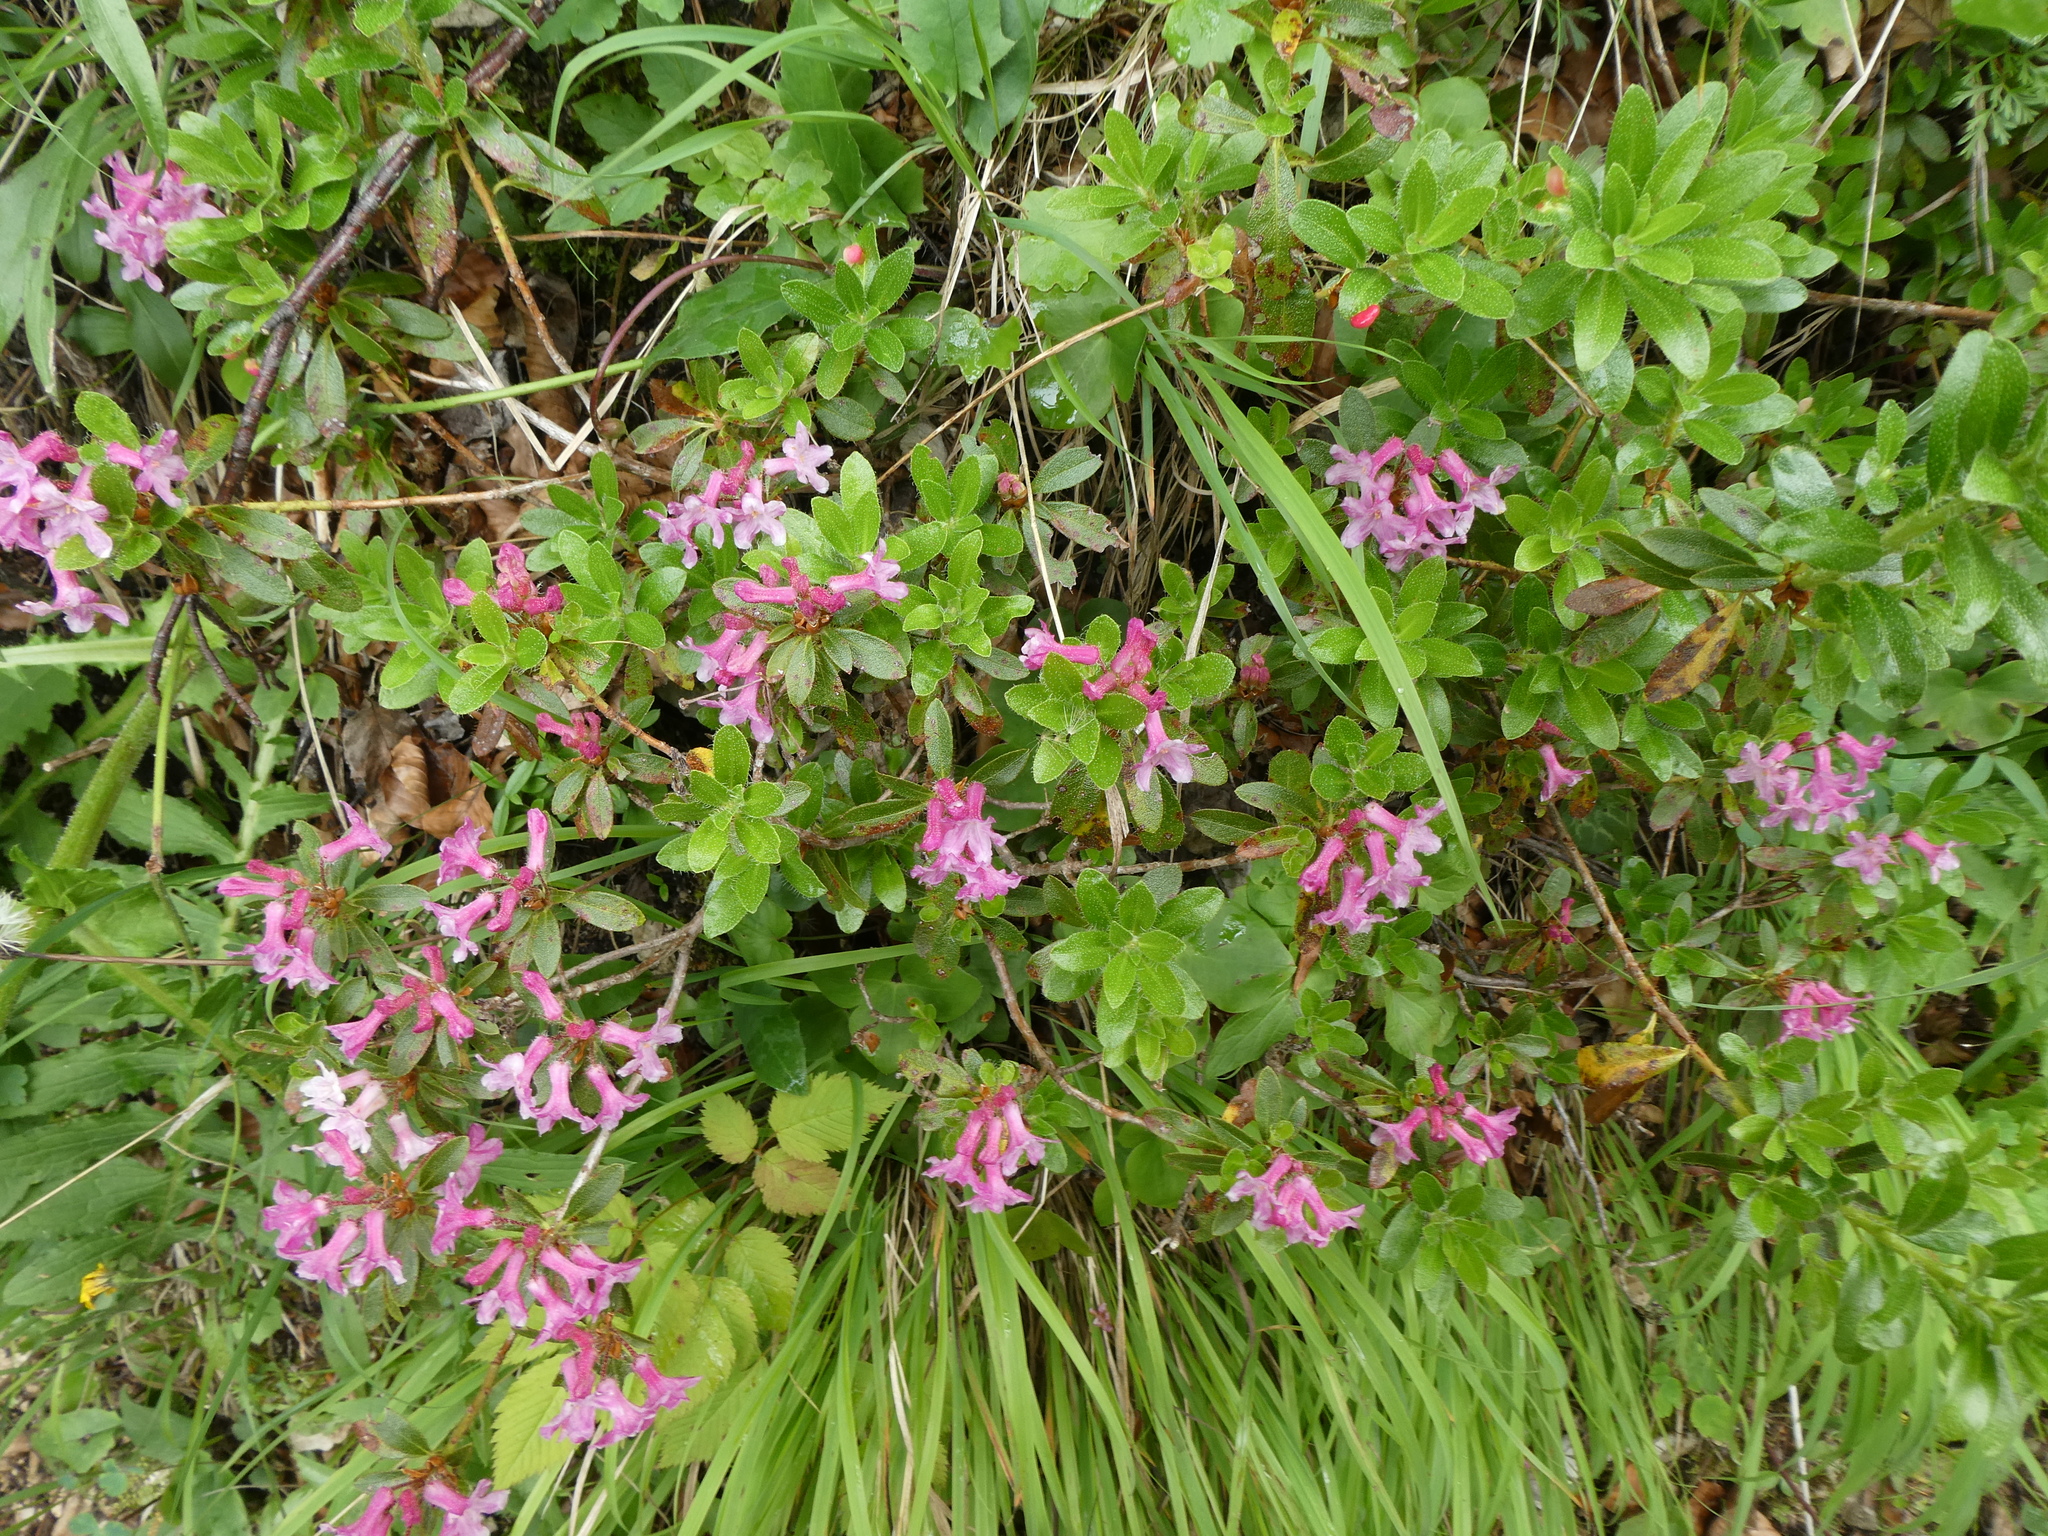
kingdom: Plantae
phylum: Tracheophyta
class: Magnoliopsida
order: Ericales
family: Ericaceae
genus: Rhododendron
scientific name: Rhododendron hirsutum
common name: Hairy alpenrose
